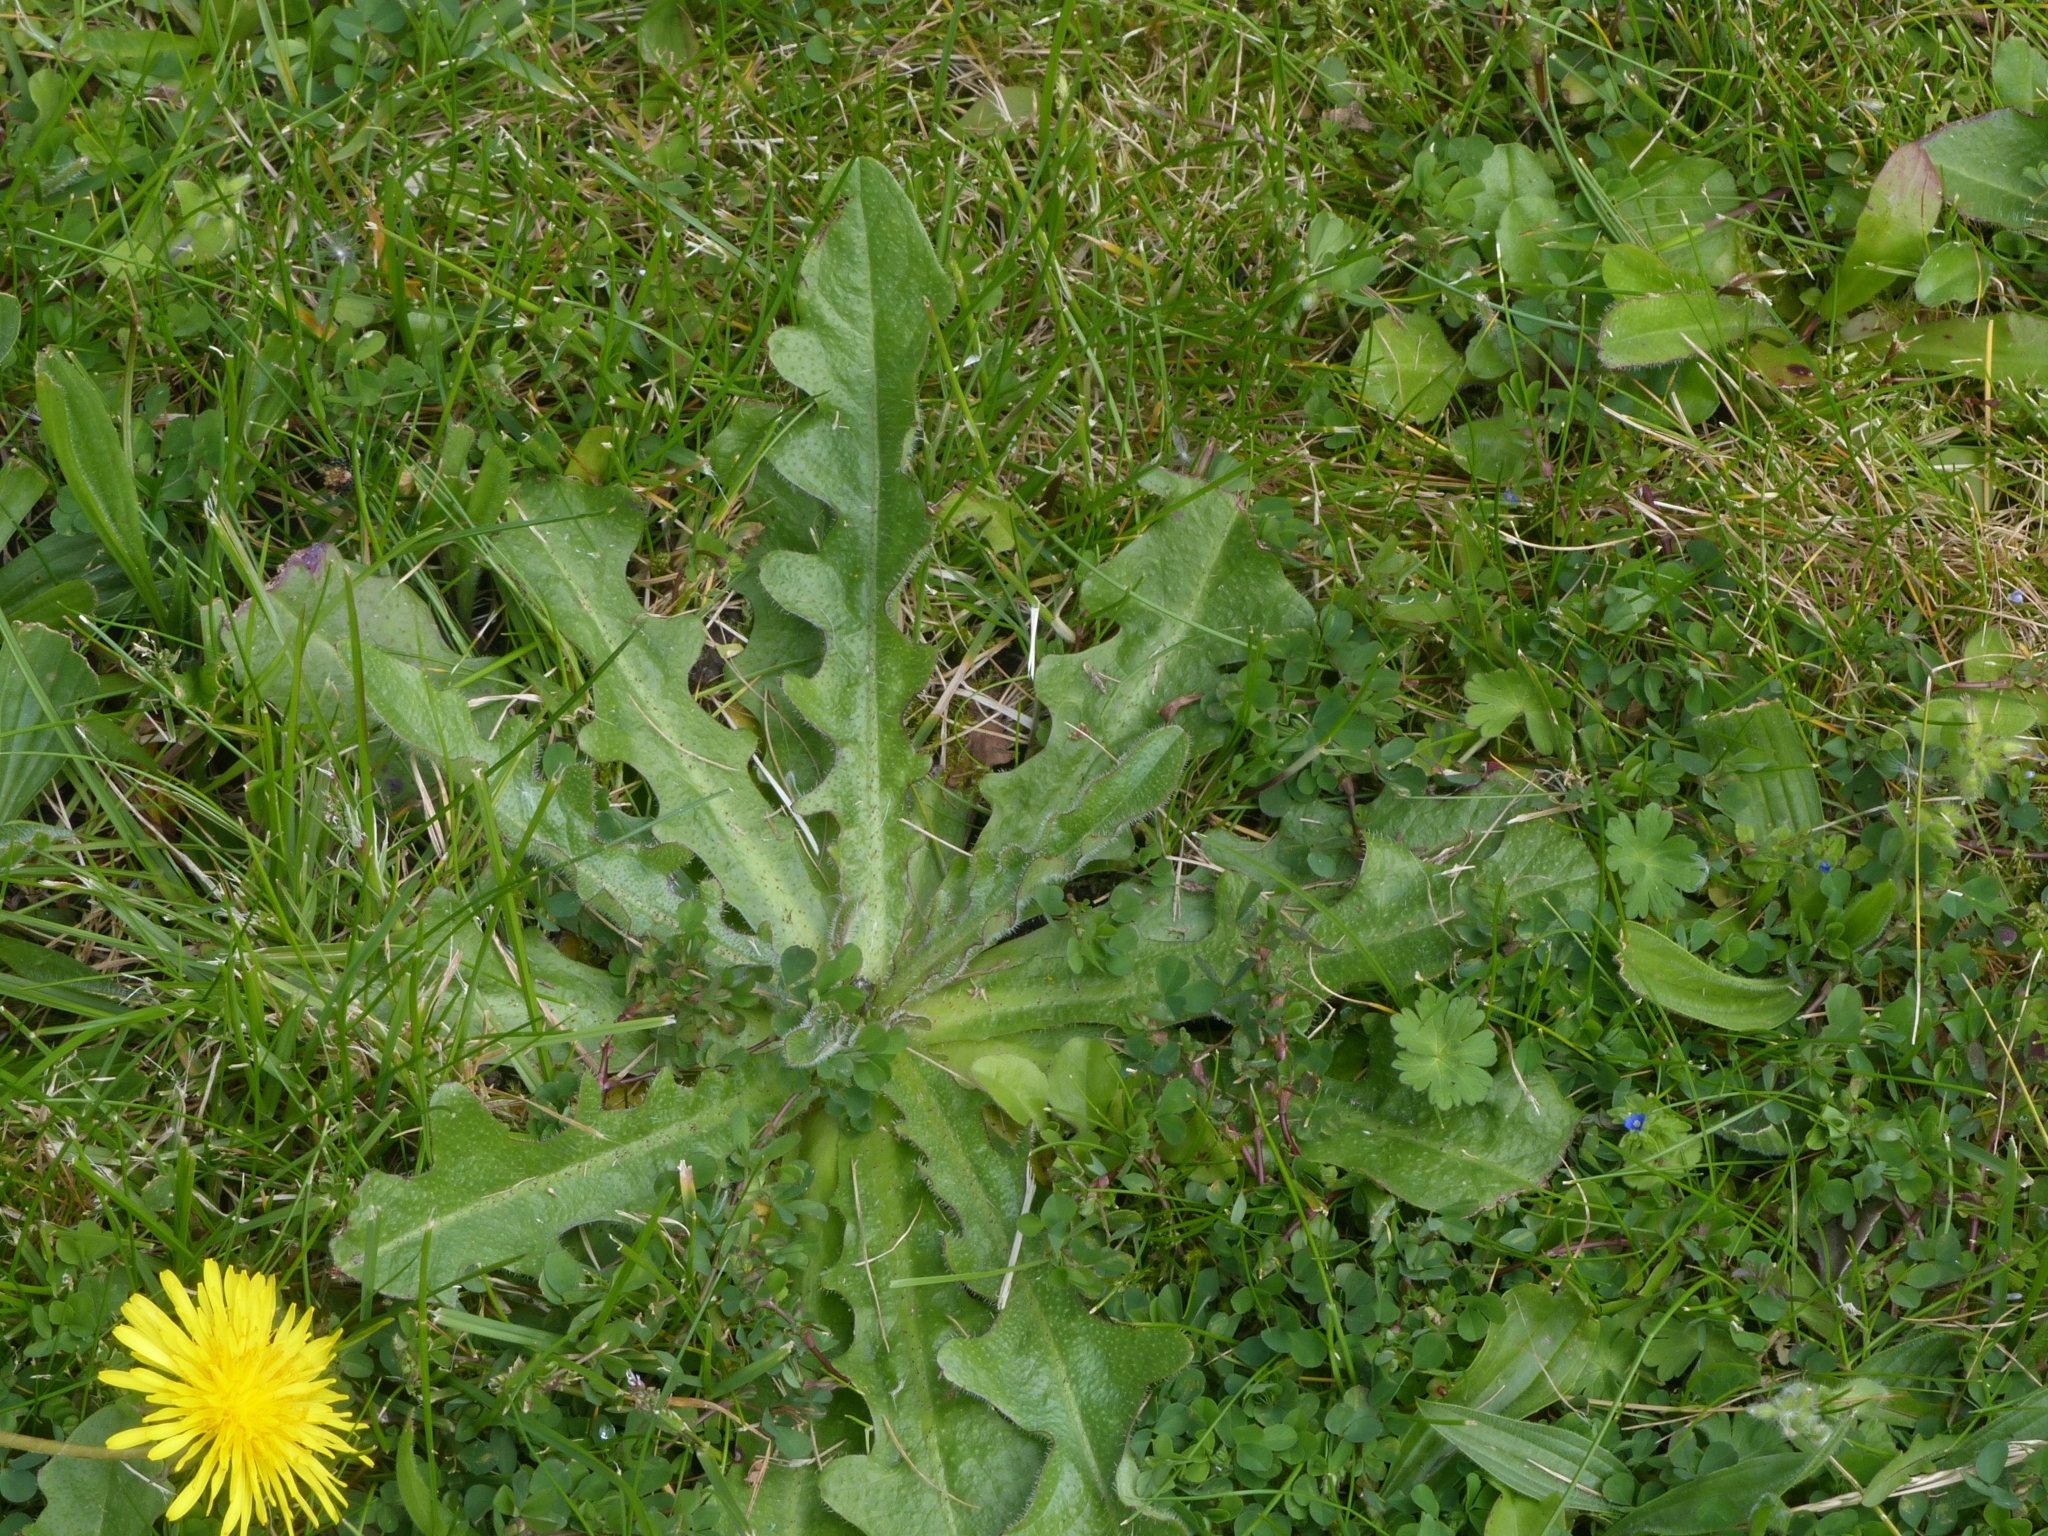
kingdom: Plantae
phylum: Tracheophyta
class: Magnoliopsida
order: Asterales
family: Asteraceae
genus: Hypochaeris
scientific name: Hypochaeris radicata
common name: Flatweed
